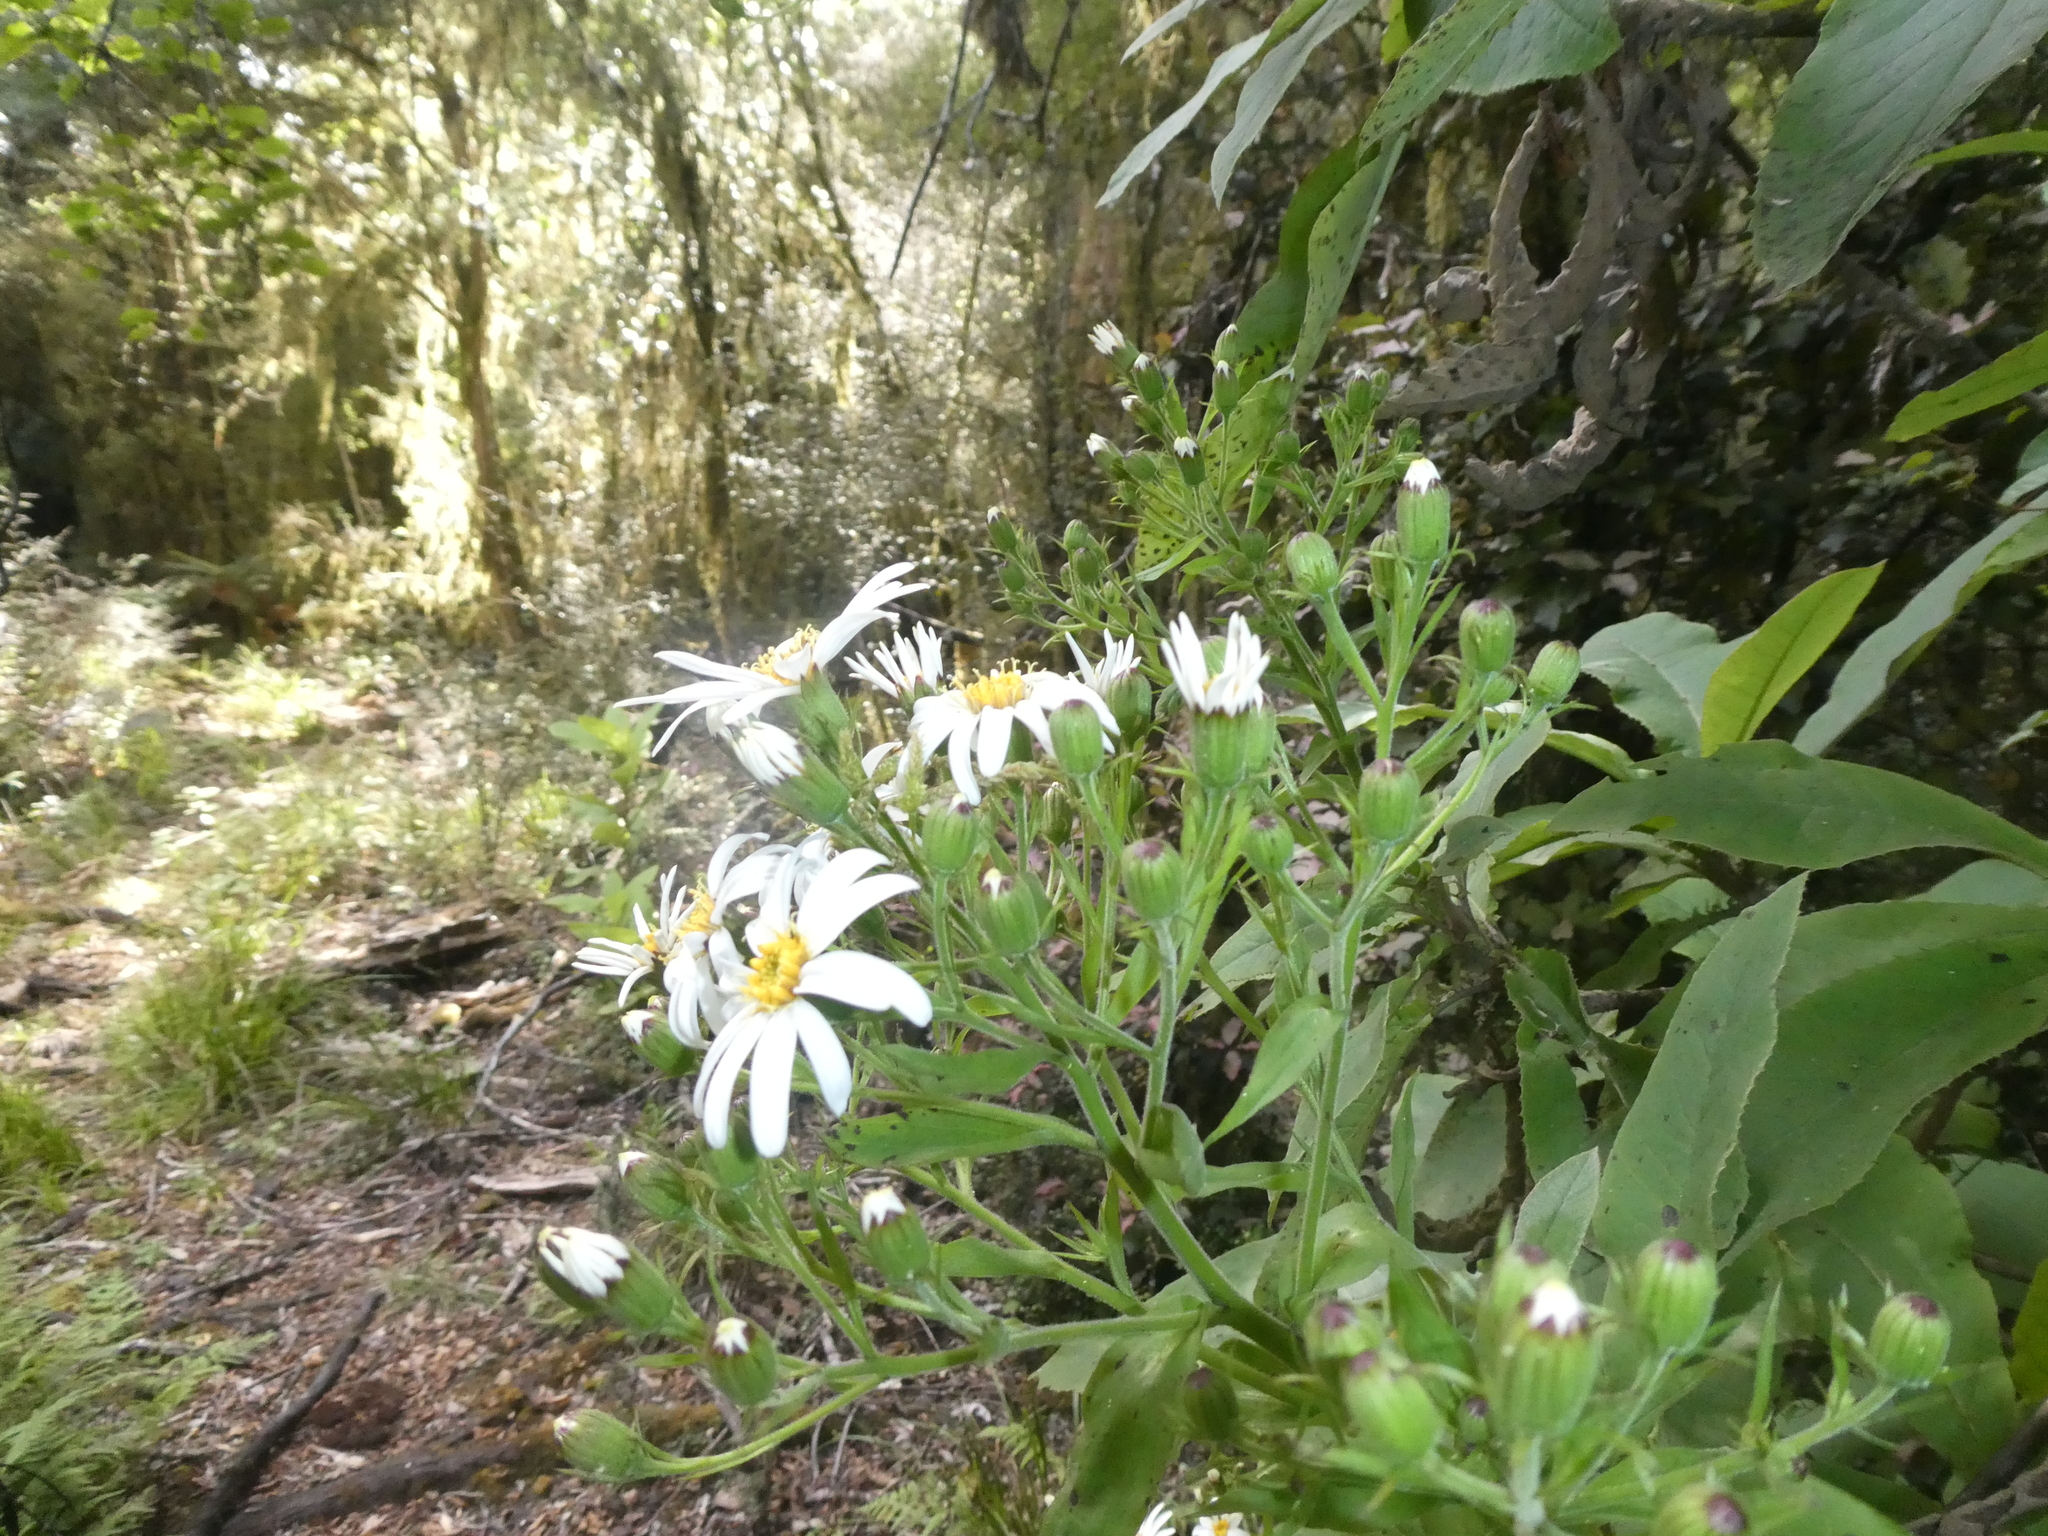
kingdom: Plantae
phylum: Tracheophyta
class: Magnoliopsida
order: Asterales
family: Asteraceae
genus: Brachyglottis
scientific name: Brachyglottis hectorii
